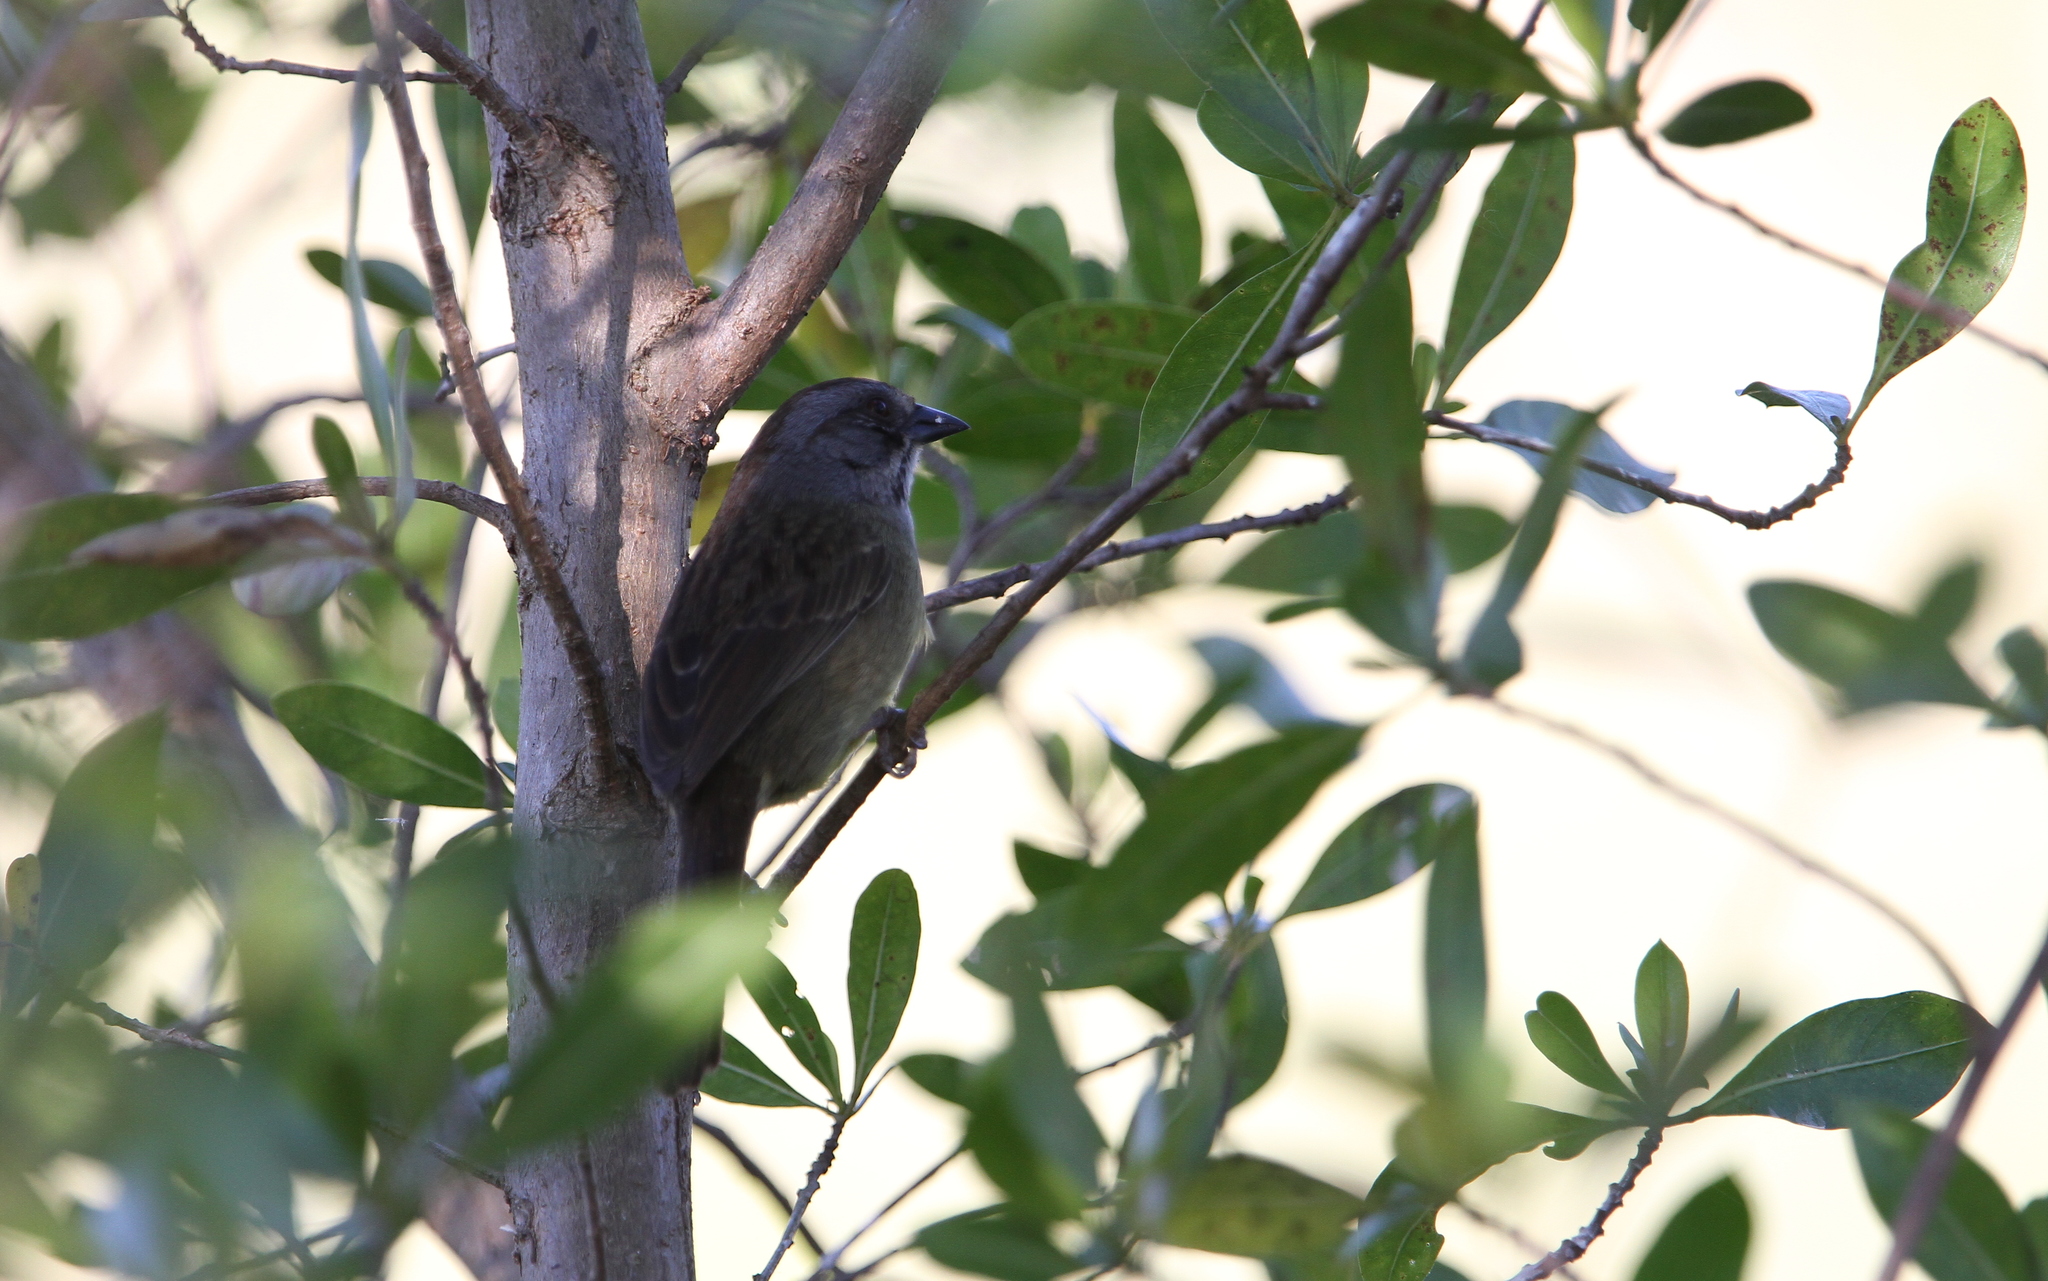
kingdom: Animalia
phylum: Chordata
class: Aves
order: Passeriformes
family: Passerellidae
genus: Torreornis
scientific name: Torreornis inexpectata
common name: Zapata sparrow
